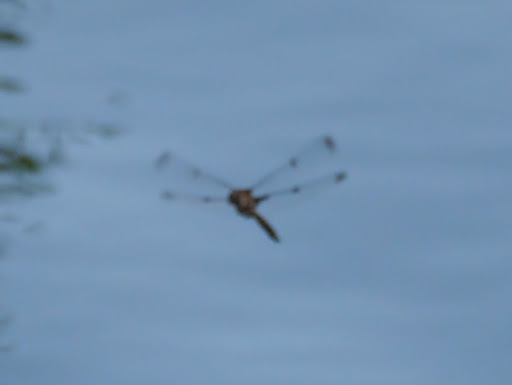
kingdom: Animalia
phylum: Arthropoda
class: Insecta
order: Odonata
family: Corduliidae
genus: Epitheca
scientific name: Epitheca princeps
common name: Prince baskettail
